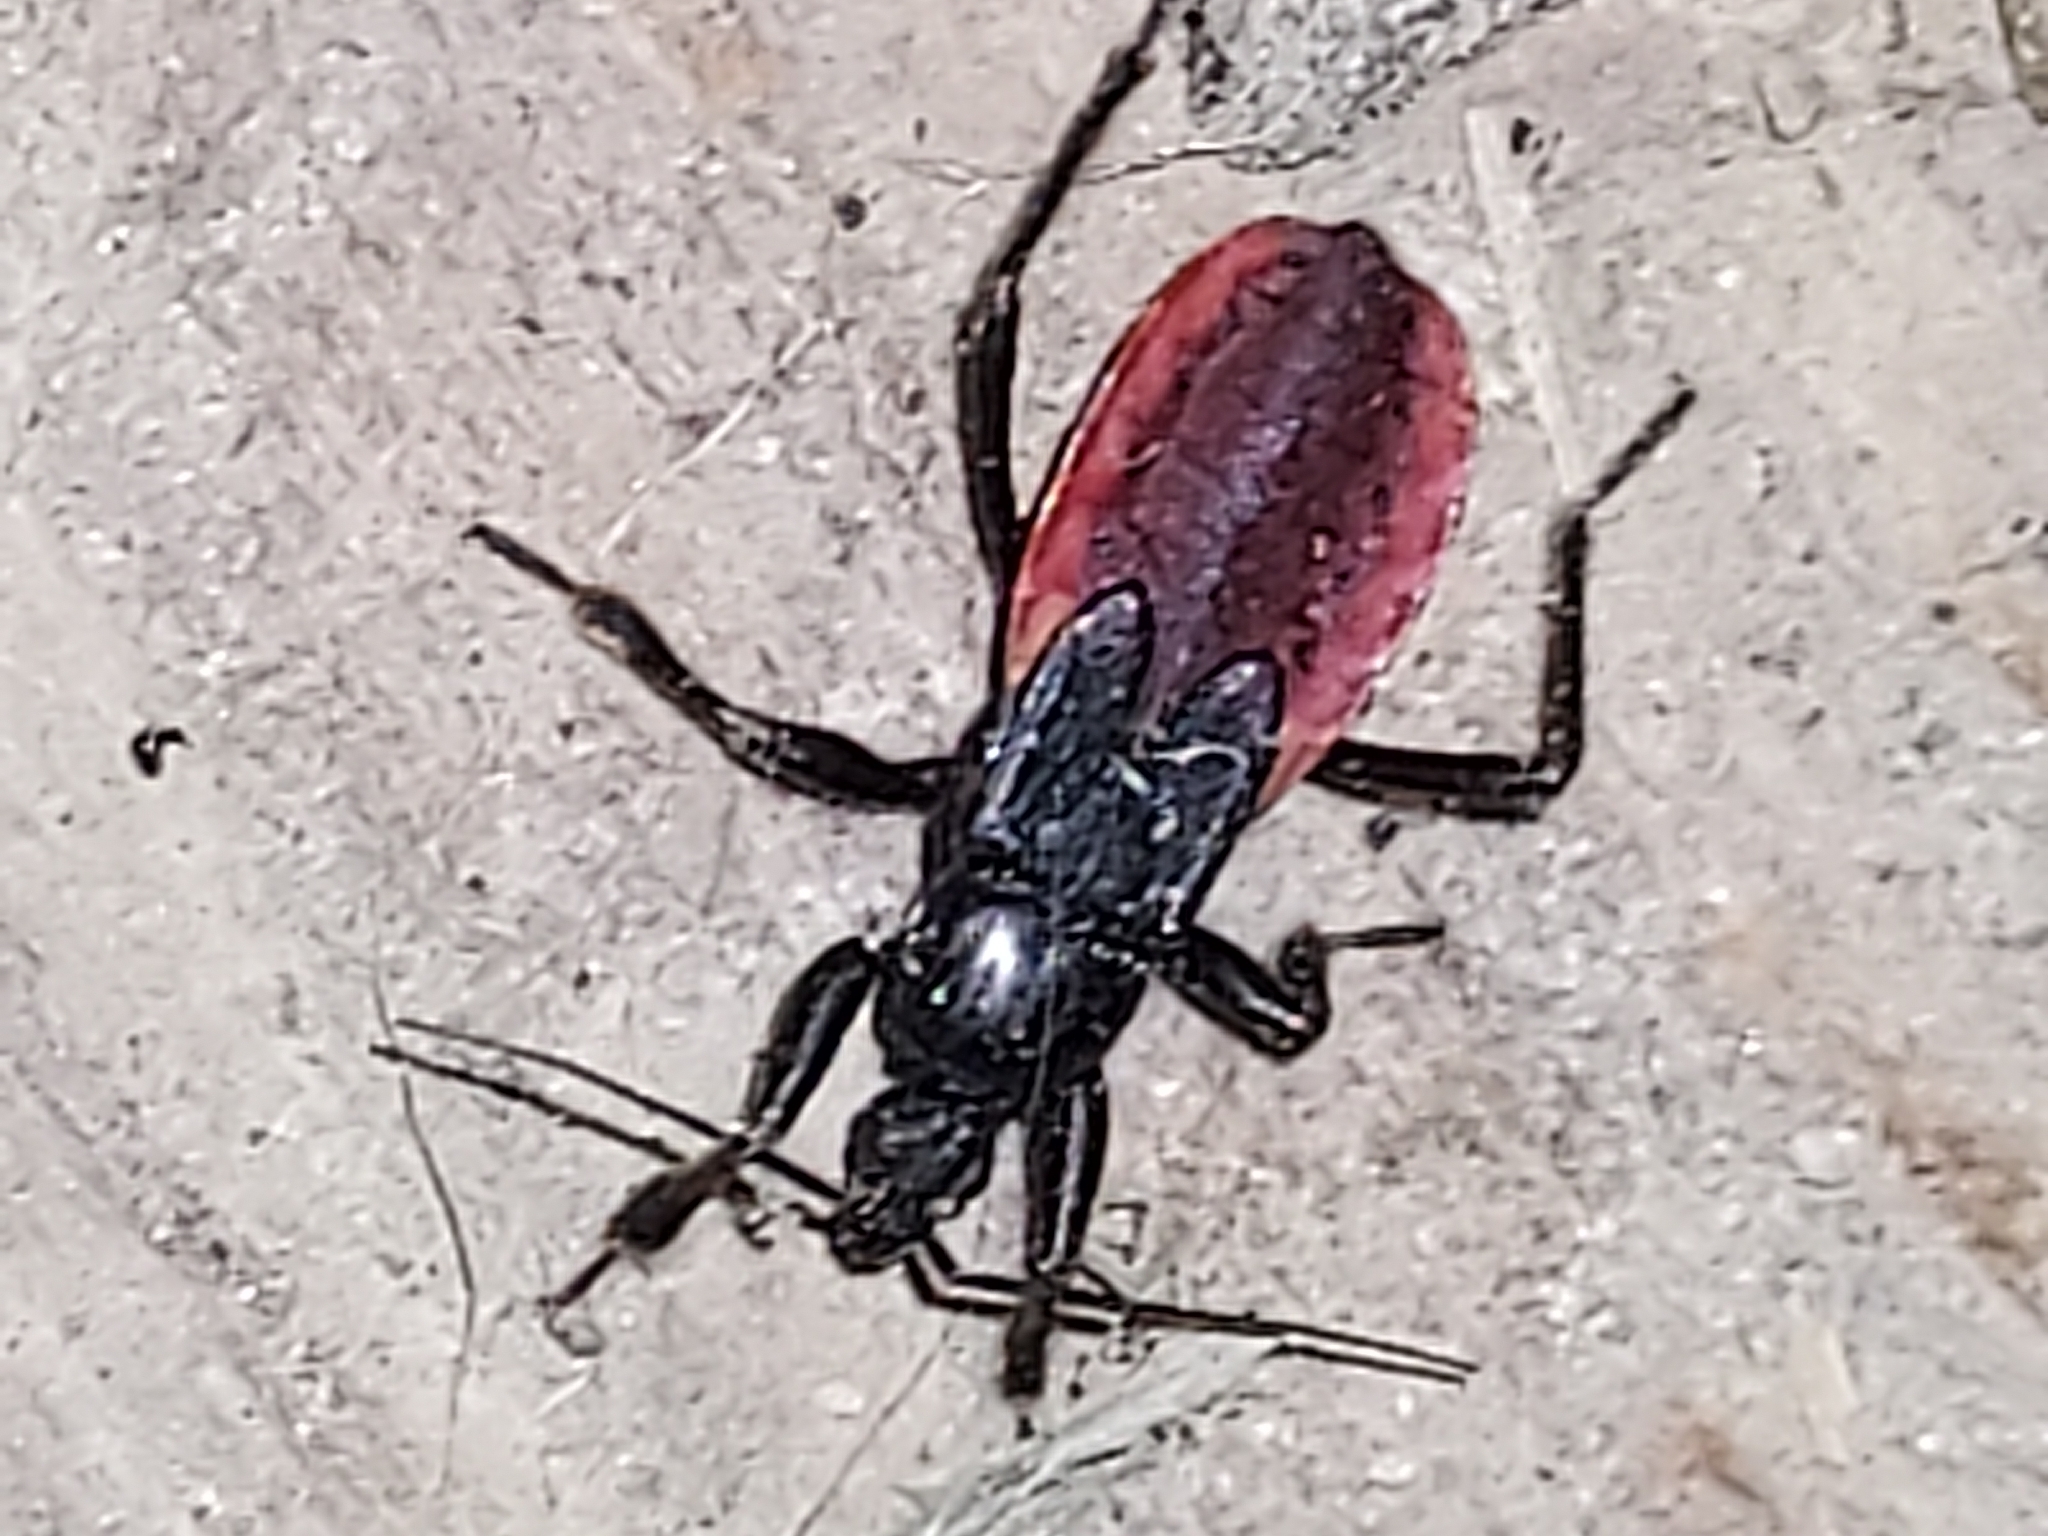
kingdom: Animalia
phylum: Arthropoda
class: Insecta
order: Hemiptera
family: Reduviidae
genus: Melanolestes
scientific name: Melanolestes picipes
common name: Assassin bug
